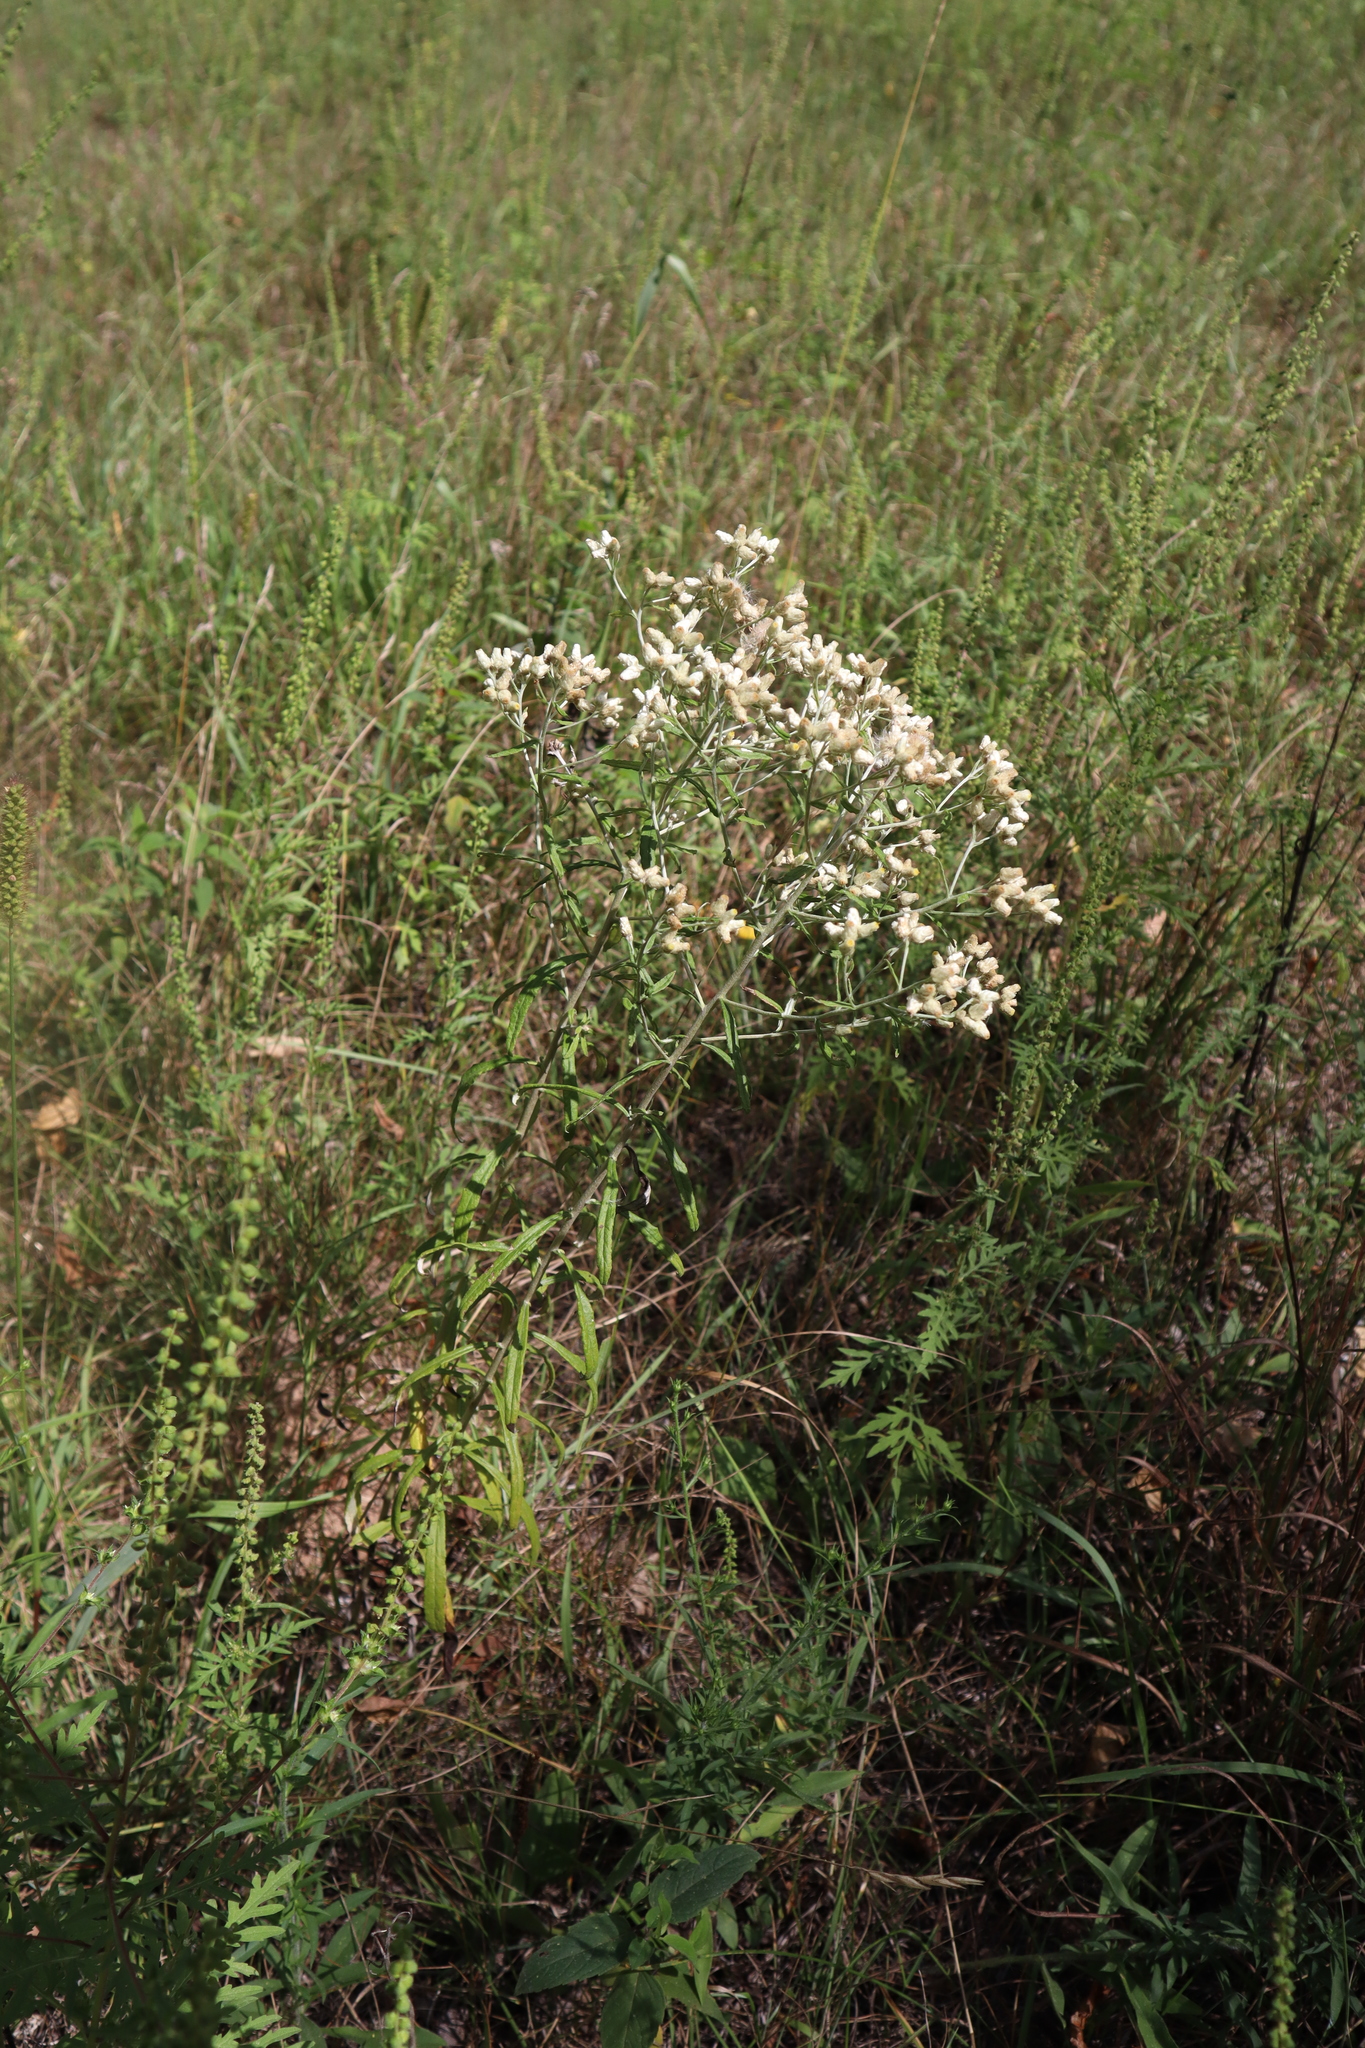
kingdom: Plantae
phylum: Tracheophyta
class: Magnoliopsida
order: Asterales
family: Asteraceae
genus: Pseudognaphalium
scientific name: Pseudognaphalium obtusifolium
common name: Eastern rabbit-tobacco
